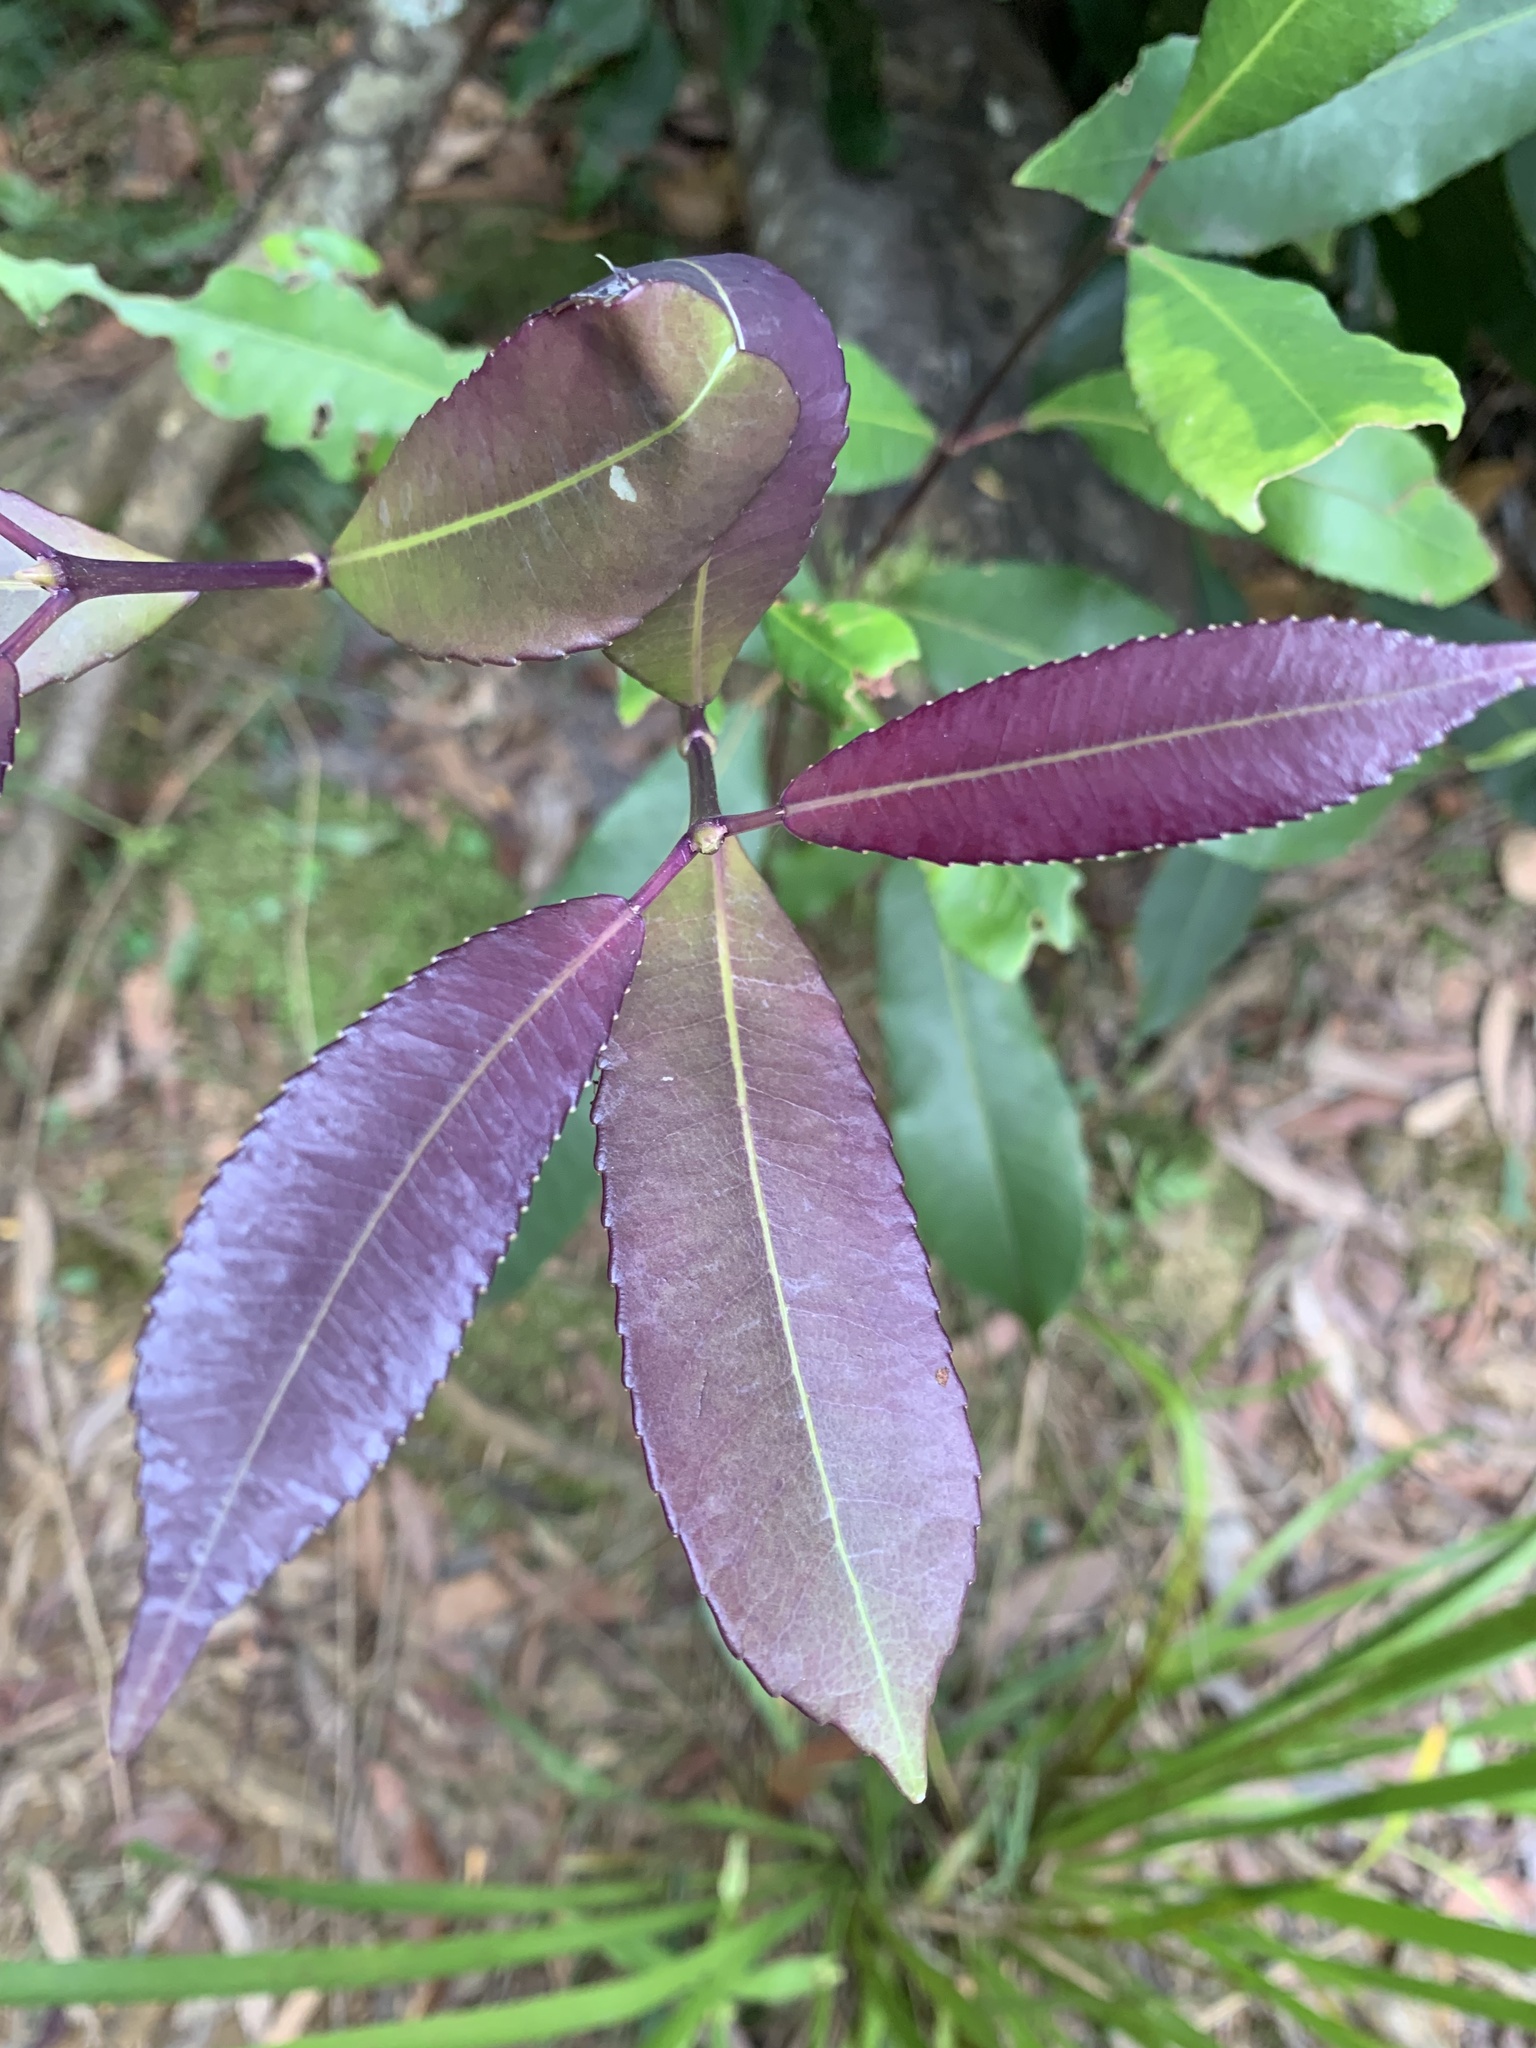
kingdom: Plantae
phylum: Tracheophyta
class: Magnoliopsida
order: Oxalidales
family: Cunoniaceae
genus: Ceratopetalum
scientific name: Ceratopetalum apetalum
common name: Scented satinwood
